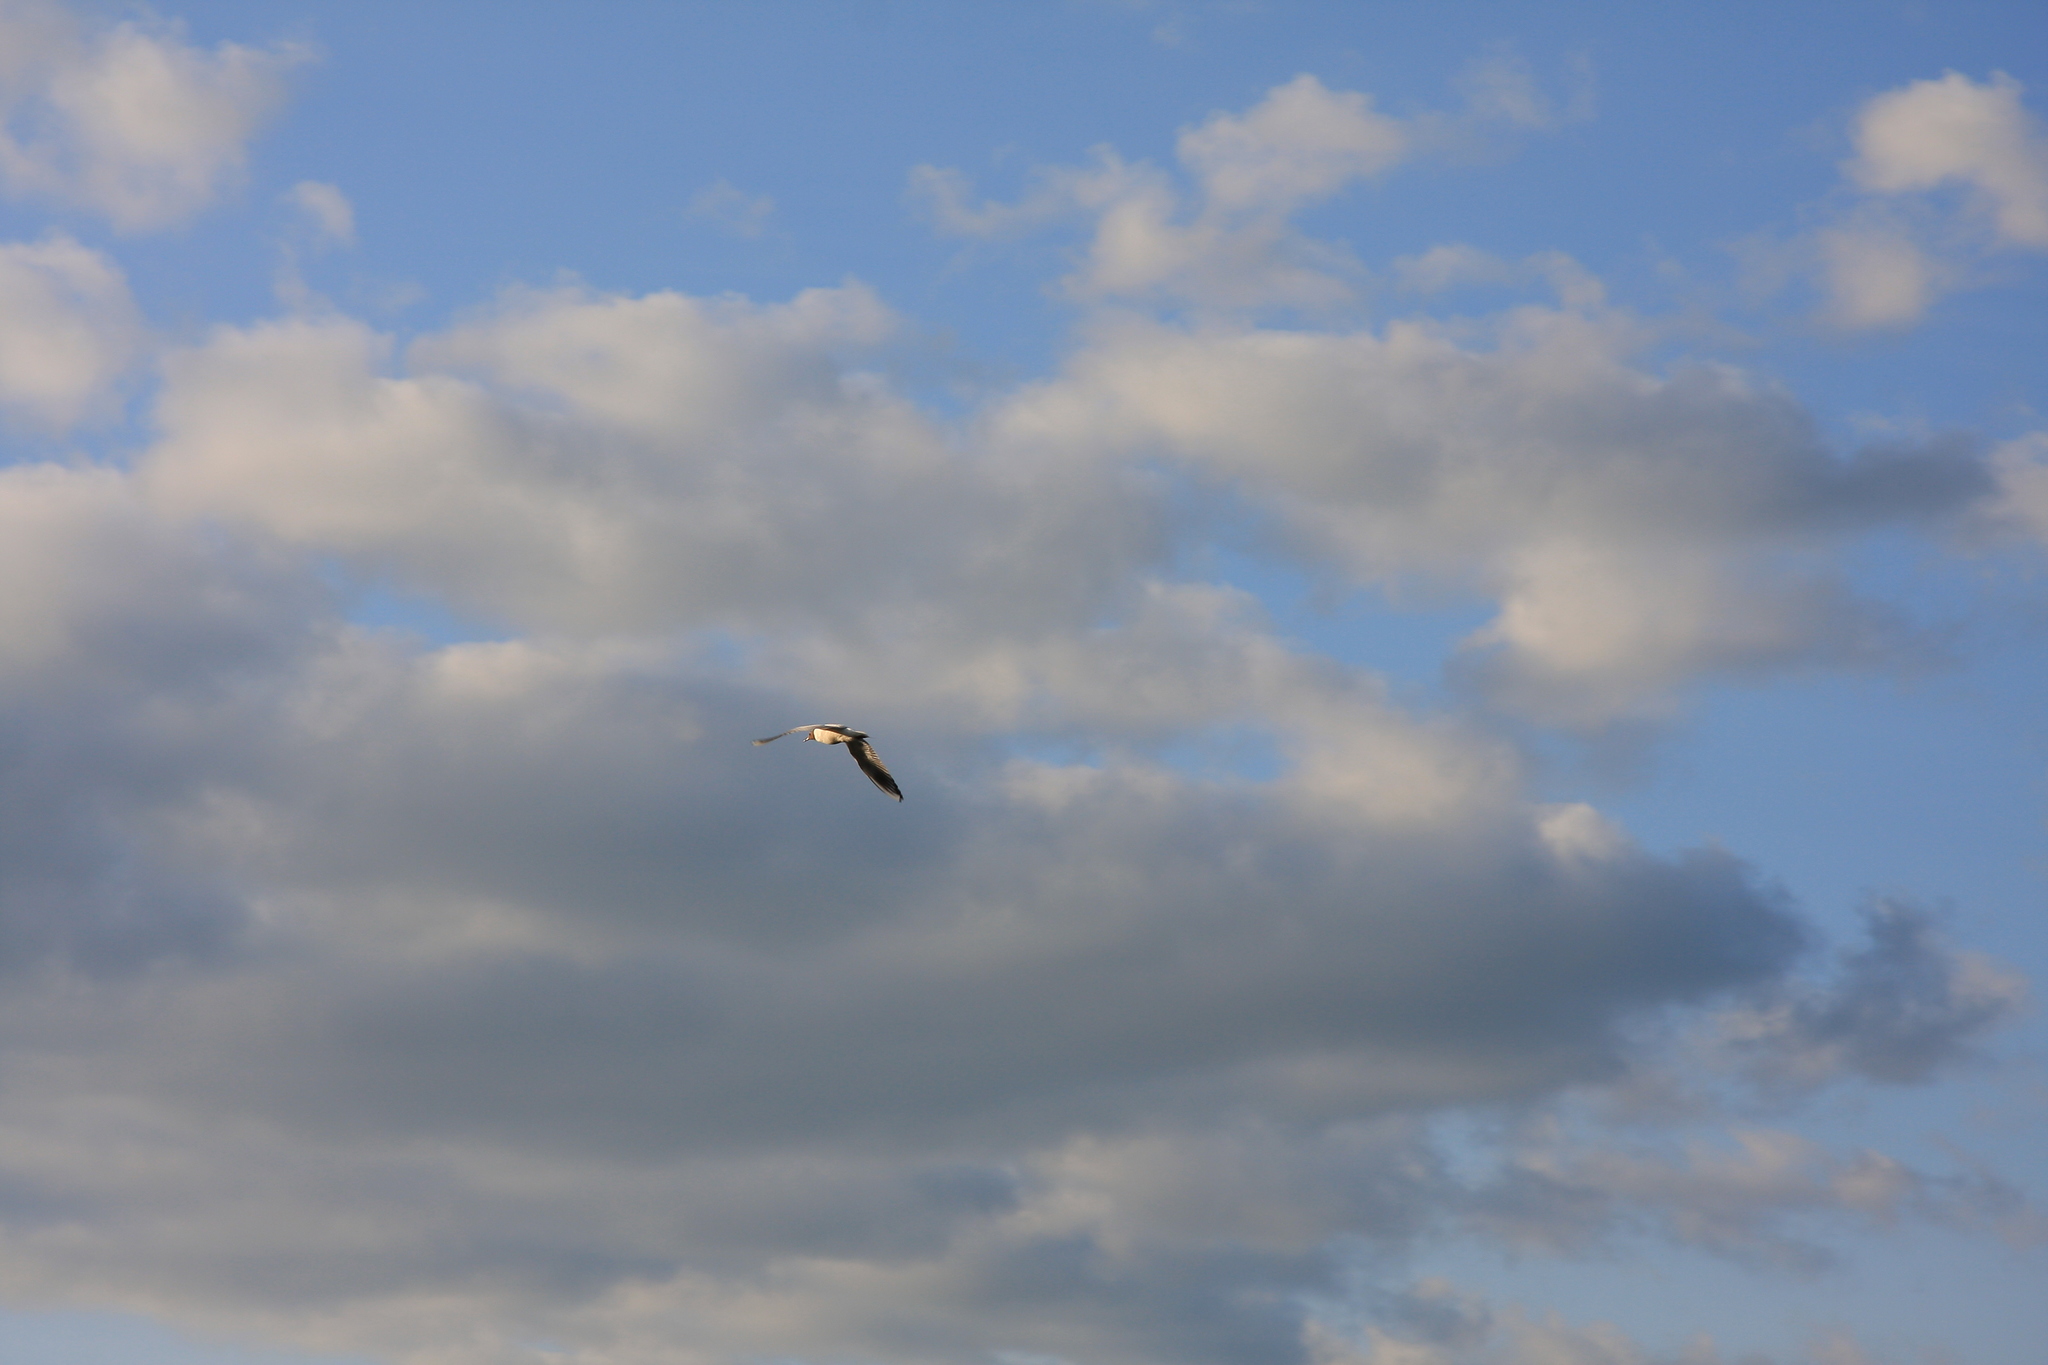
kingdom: Animalia
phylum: Chordata
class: Aves
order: Charadriiformes
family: Laridae
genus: Chroicocephalus
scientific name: Chroicocephalus ridibundus
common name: Black-headed gull
